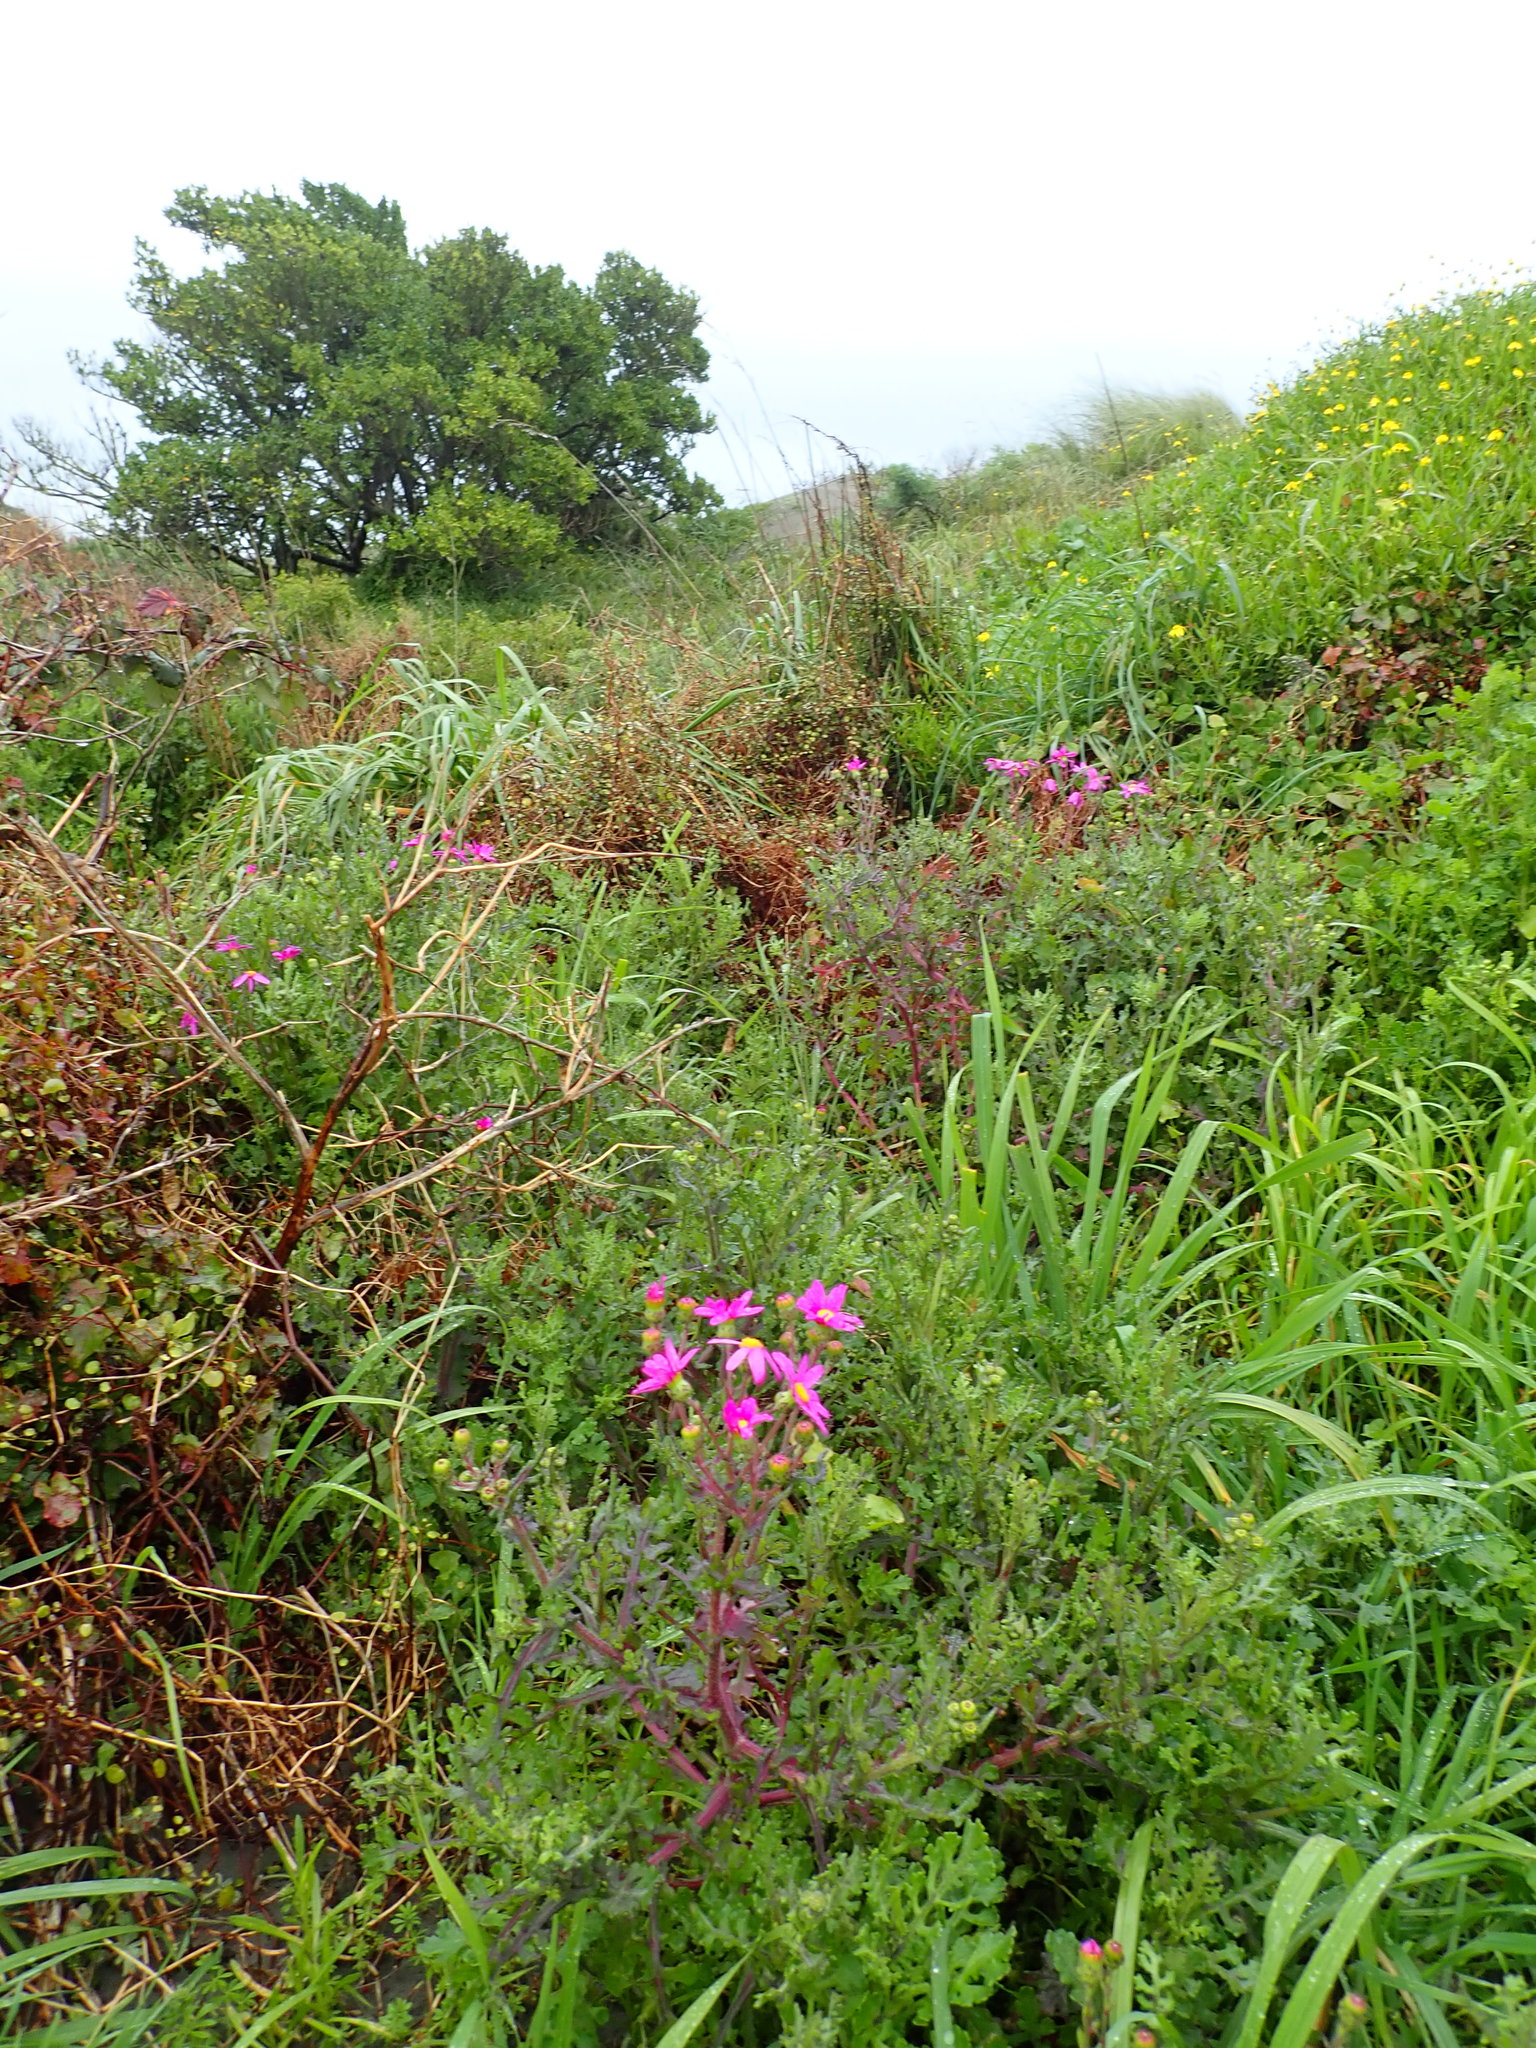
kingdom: Plantae
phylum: Tracheophyta
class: Magnoliopsida
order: Asterales
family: Asteraceae
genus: Senecio
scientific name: Senecio elegans
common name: Purple groundsel
